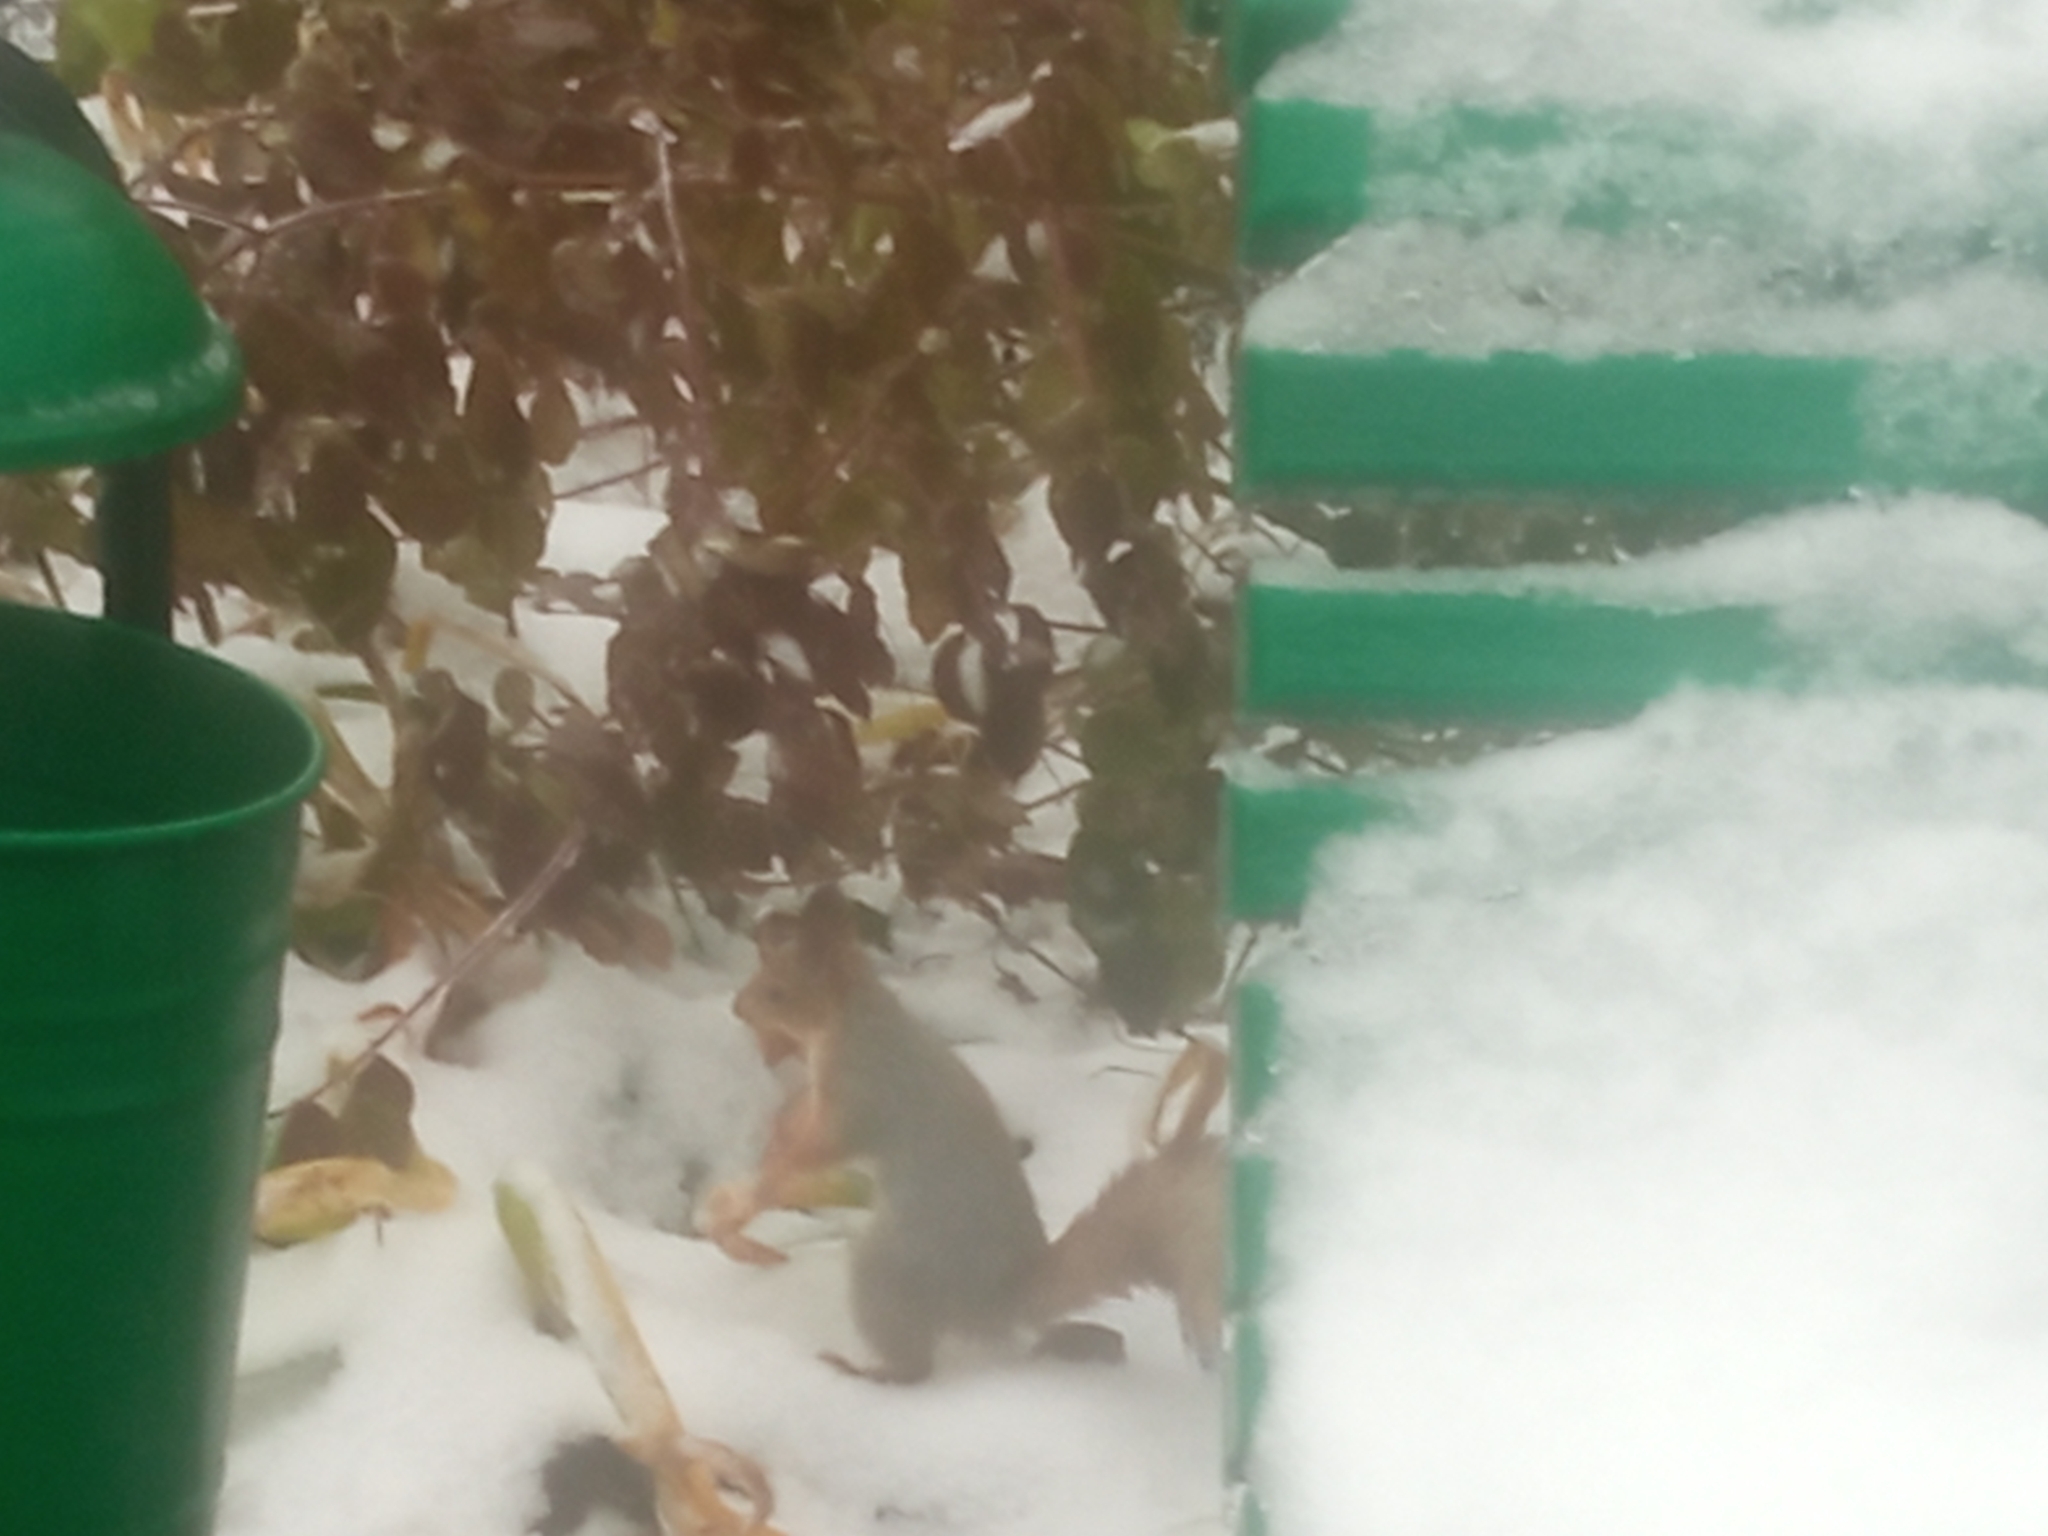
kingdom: Animalia
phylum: Chordata
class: Mammalia
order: Rodentia
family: Sciuridae
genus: Sciurus
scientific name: Sciurus vulgaris
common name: Eurasian red squirrel
